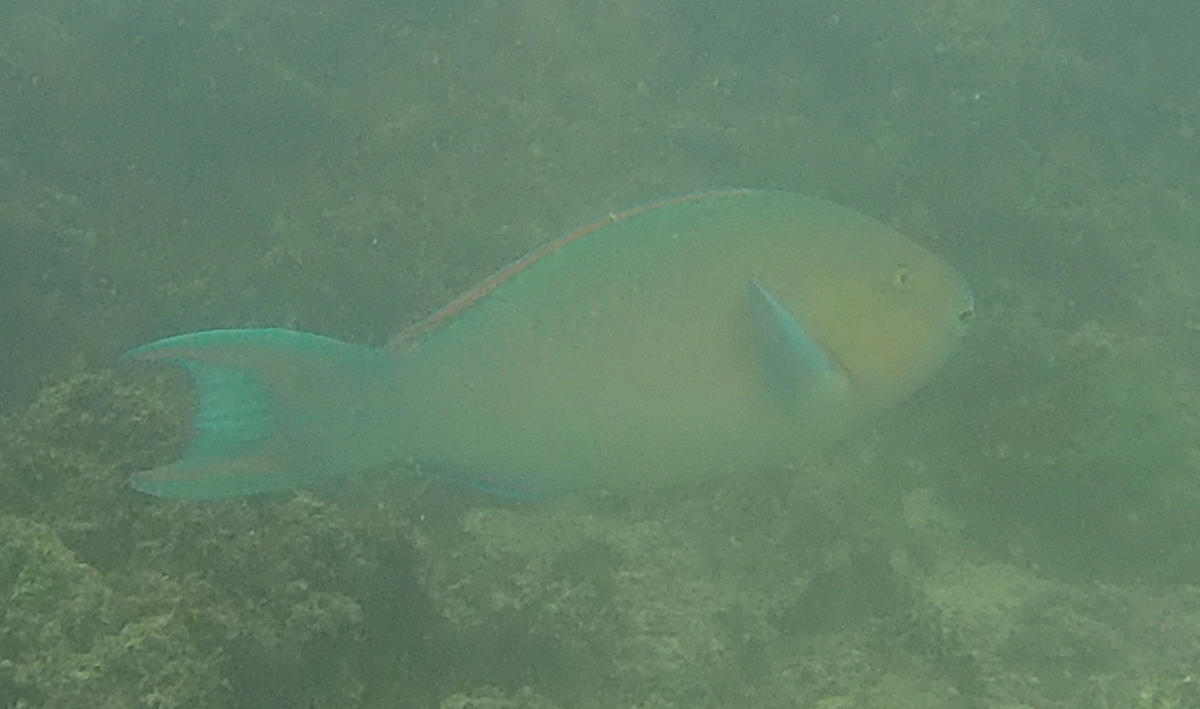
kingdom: Animalia
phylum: Chordata
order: Perciformes
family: Scaridae
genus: Scarus
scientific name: Scarus ghobban
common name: Blue-barred parrotfish
